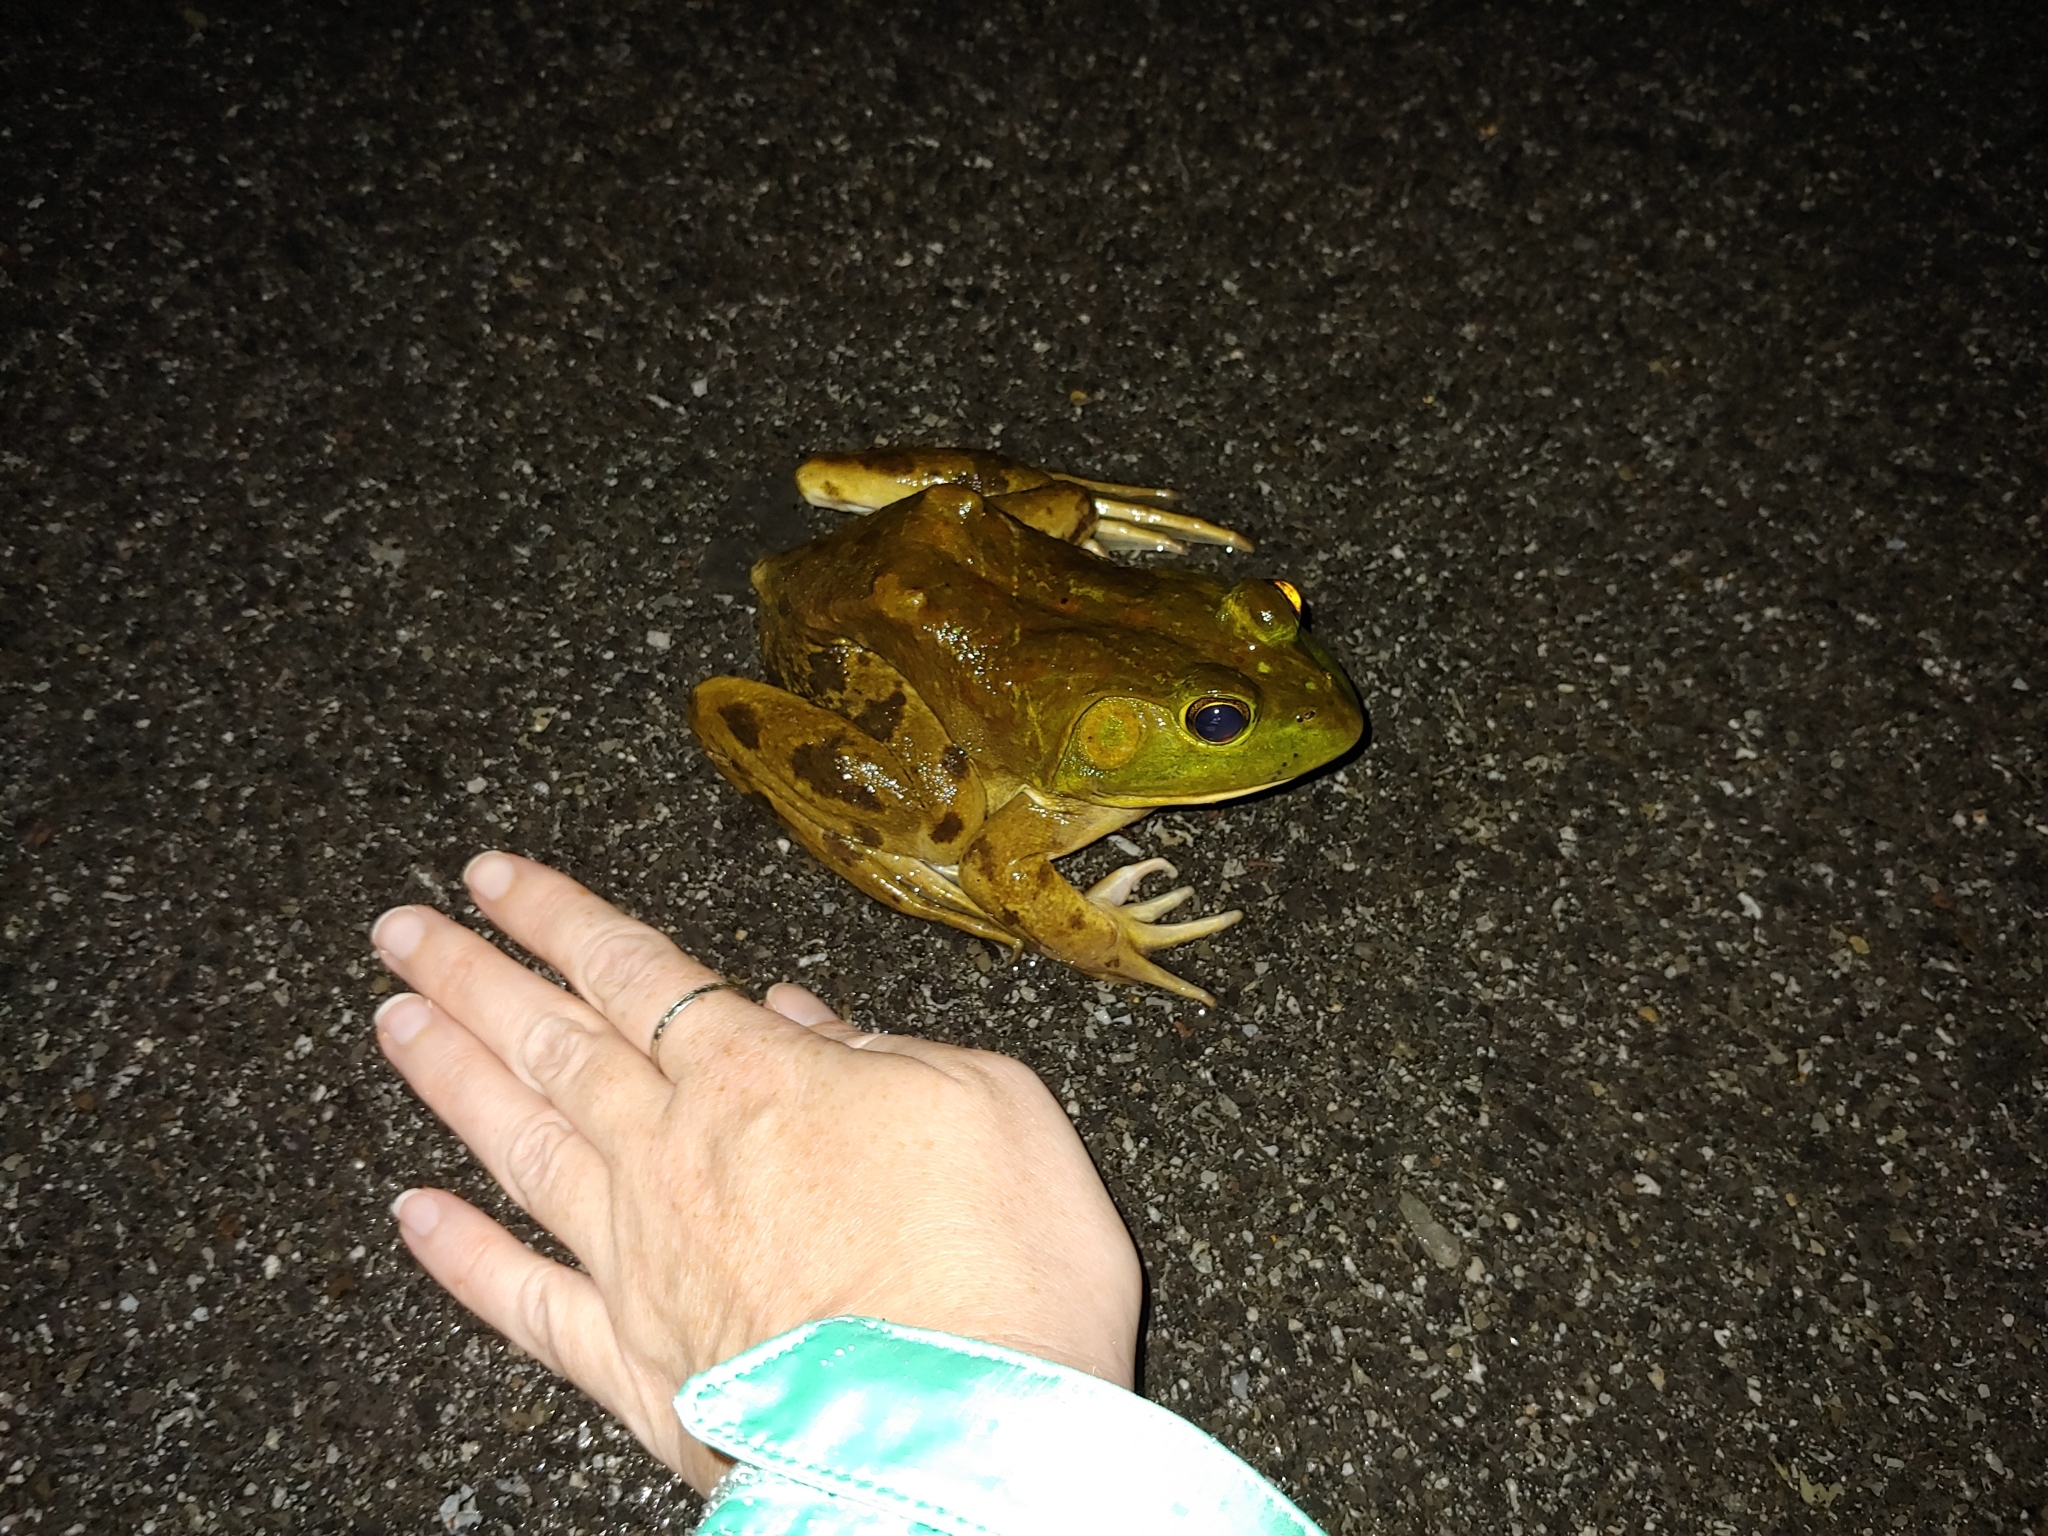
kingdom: Animalia
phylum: Chordata
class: Amphibia
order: Anura
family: Ranidae
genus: Lithobates
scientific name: Lithobates catesbeianus
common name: American bullfrog
